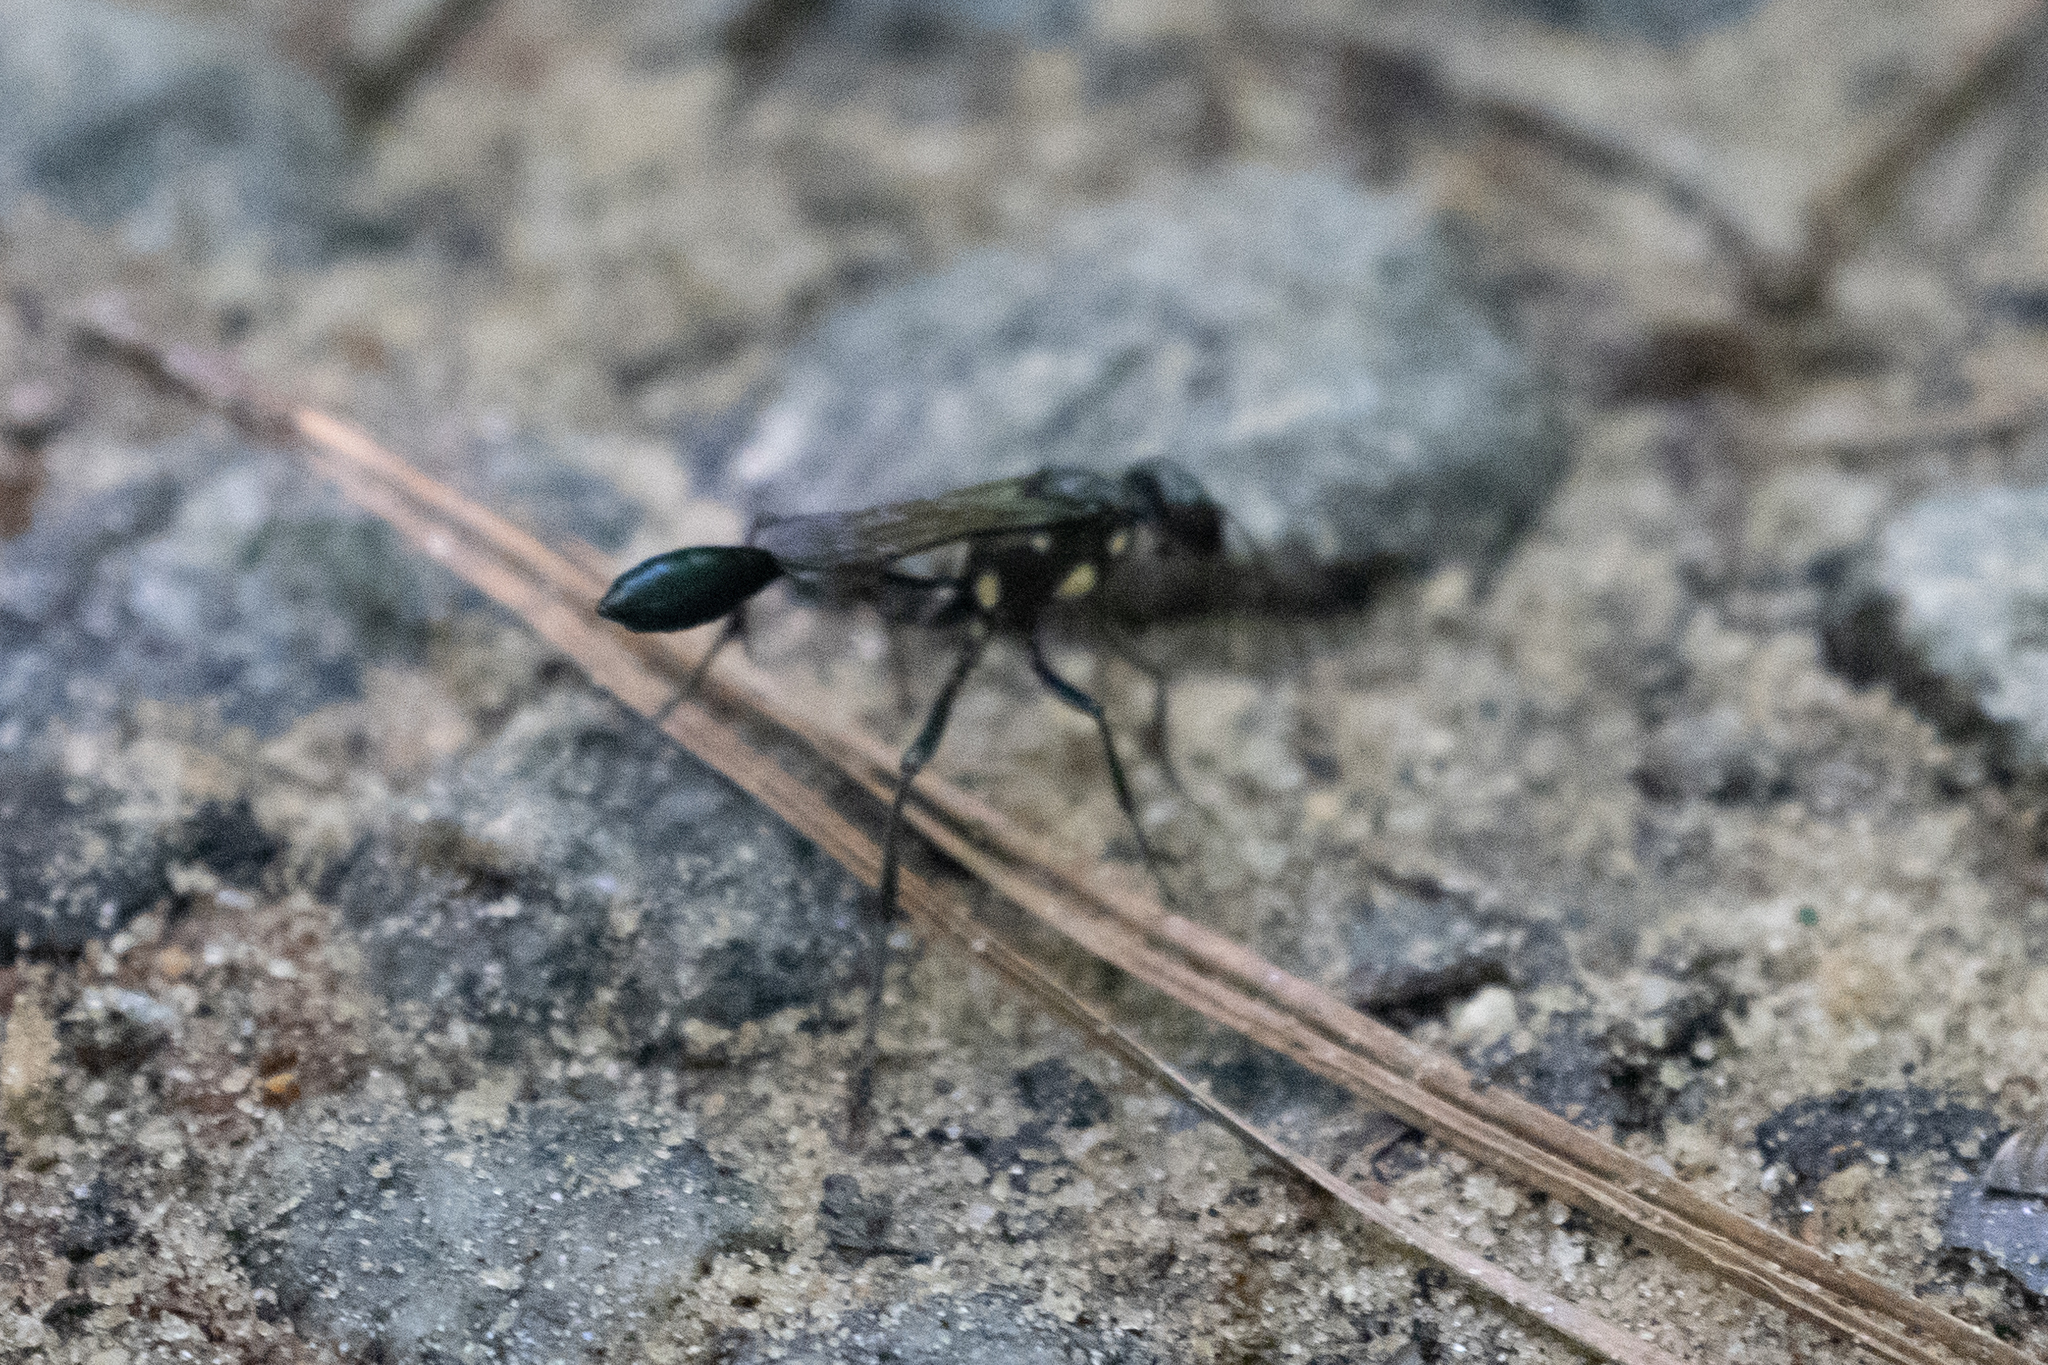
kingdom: Animalia
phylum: Arthropoda
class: Insecta
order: Hymenoptera
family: Sphecidae
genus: Eremnophila
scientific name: Eremnophila aureonotata
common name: Gold-marked thread-waisted wasp
